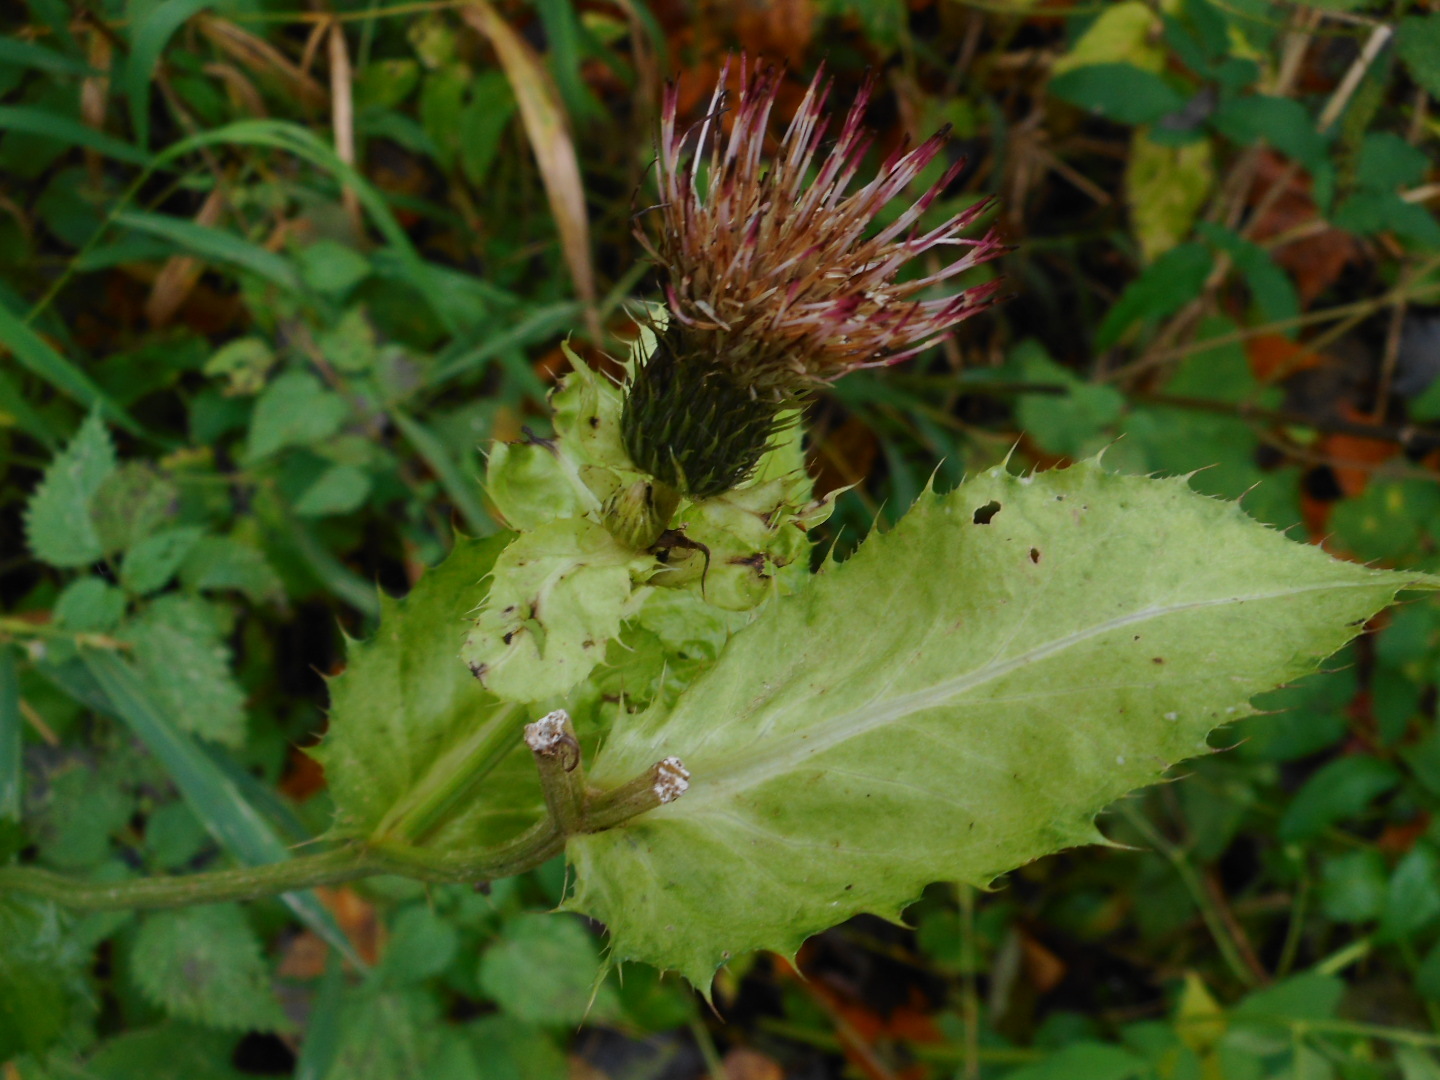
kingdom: Plantae
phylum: Tracheophyta
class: Magnoliopsida
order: Asterales
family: Asteraceae
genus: Cirsium
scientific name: Cirsium oleraceum
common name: Cabbage thistle
